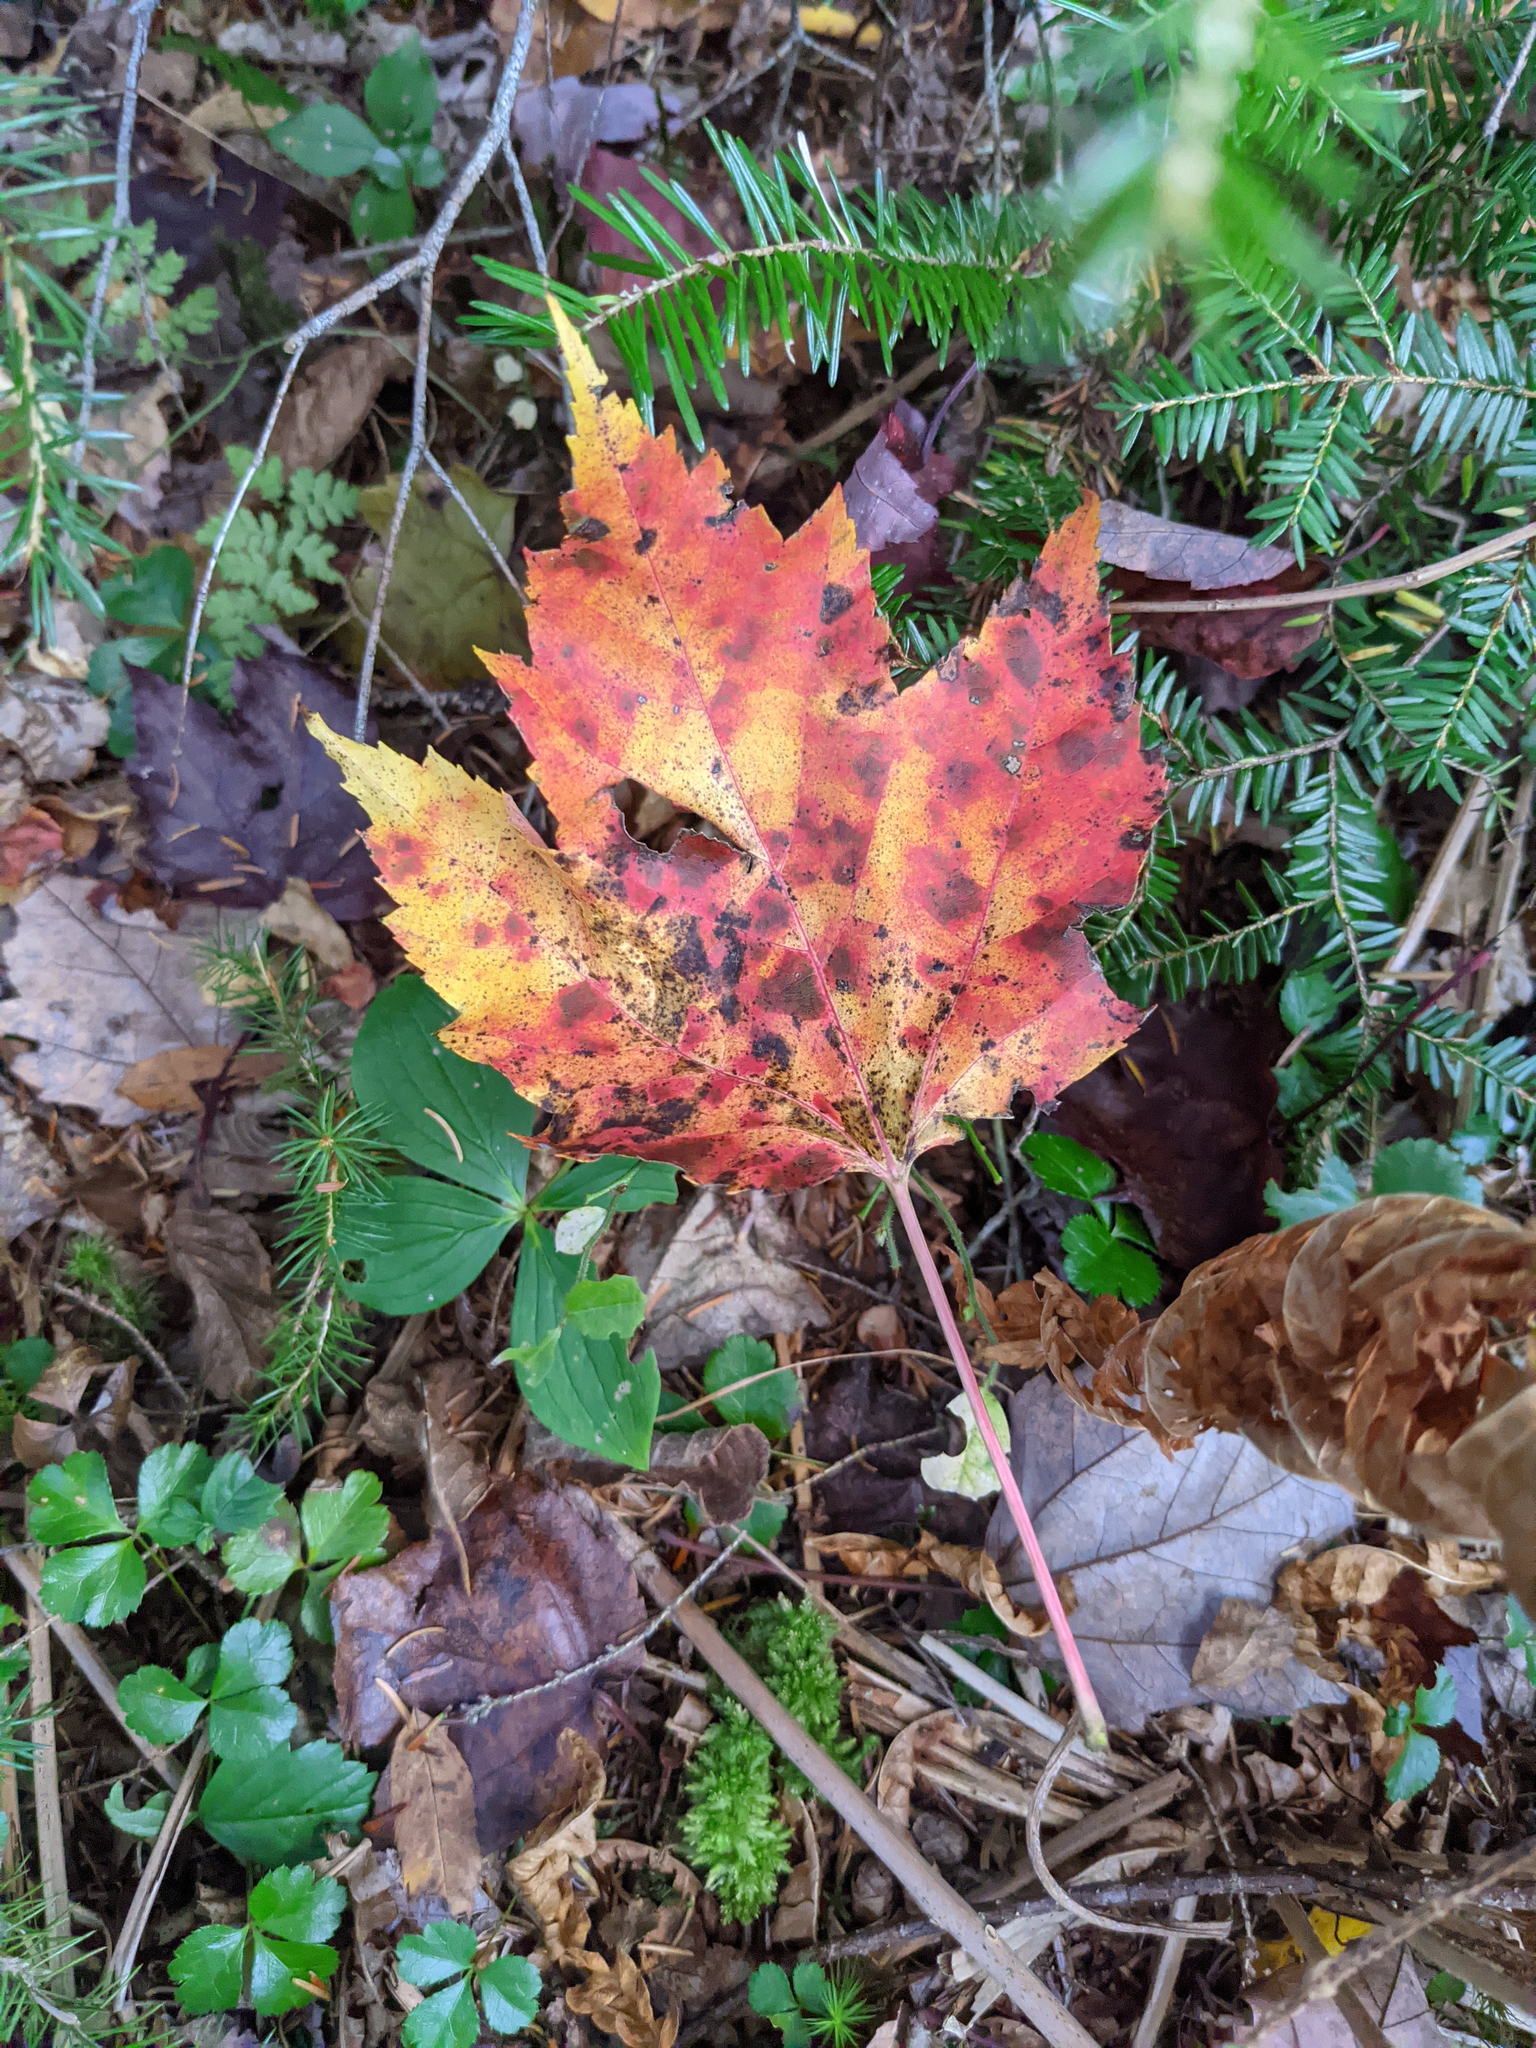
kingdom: Plantae
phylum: Tracheophyta
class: Magnoliopsida
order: Sapindales
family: Sapindaceae
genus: Acer
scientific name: Acer rubrum
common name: Red maple
